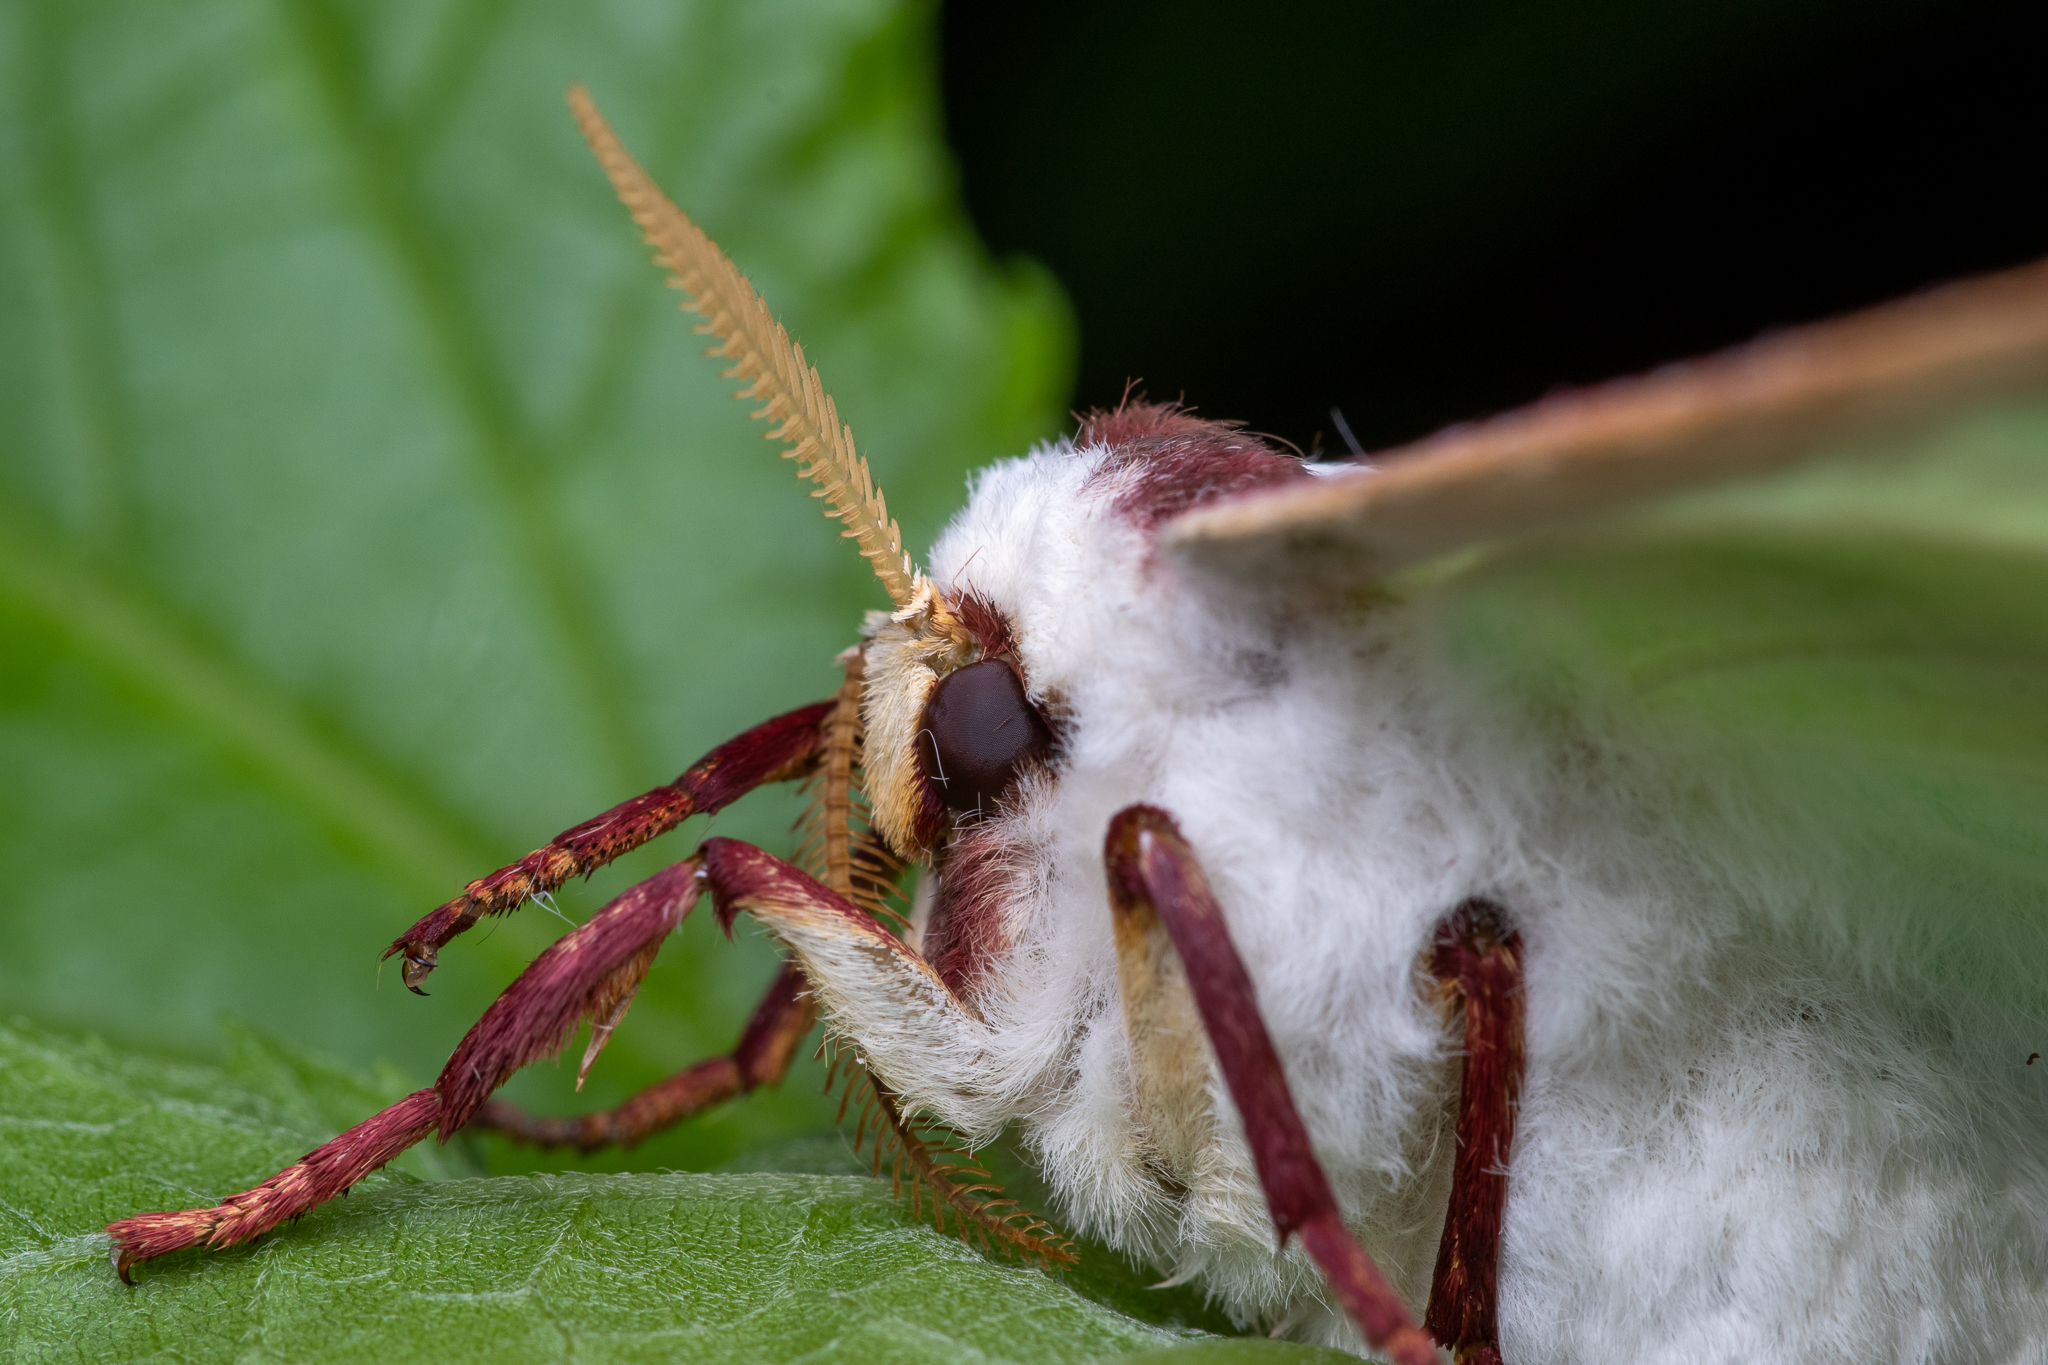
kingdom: Animalia
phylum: Arthropoda
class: Insecta
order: Lepidoptera
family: Saturniidae
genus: Actias
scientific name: Actias luna
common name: Luna moth
